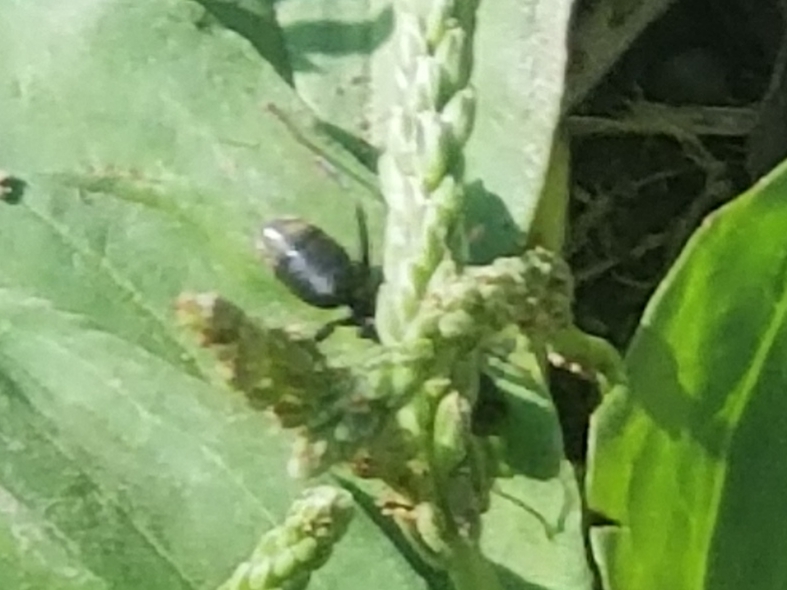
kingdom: Animalia
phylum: Arthropoda
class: Insecta
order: Hymenoptera
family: Formicidae
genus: Camponotus
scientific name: Camponotus pennsylvanicus
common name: Black carpenter ant
